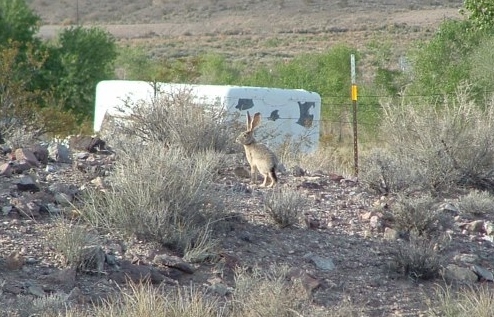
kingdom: Animalia
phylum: Chordata
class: Mammalia
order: Lagomorpha
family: Leporidae
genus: Lepus
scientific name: Lepus californicus
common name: Black-tailed jackrabbit
